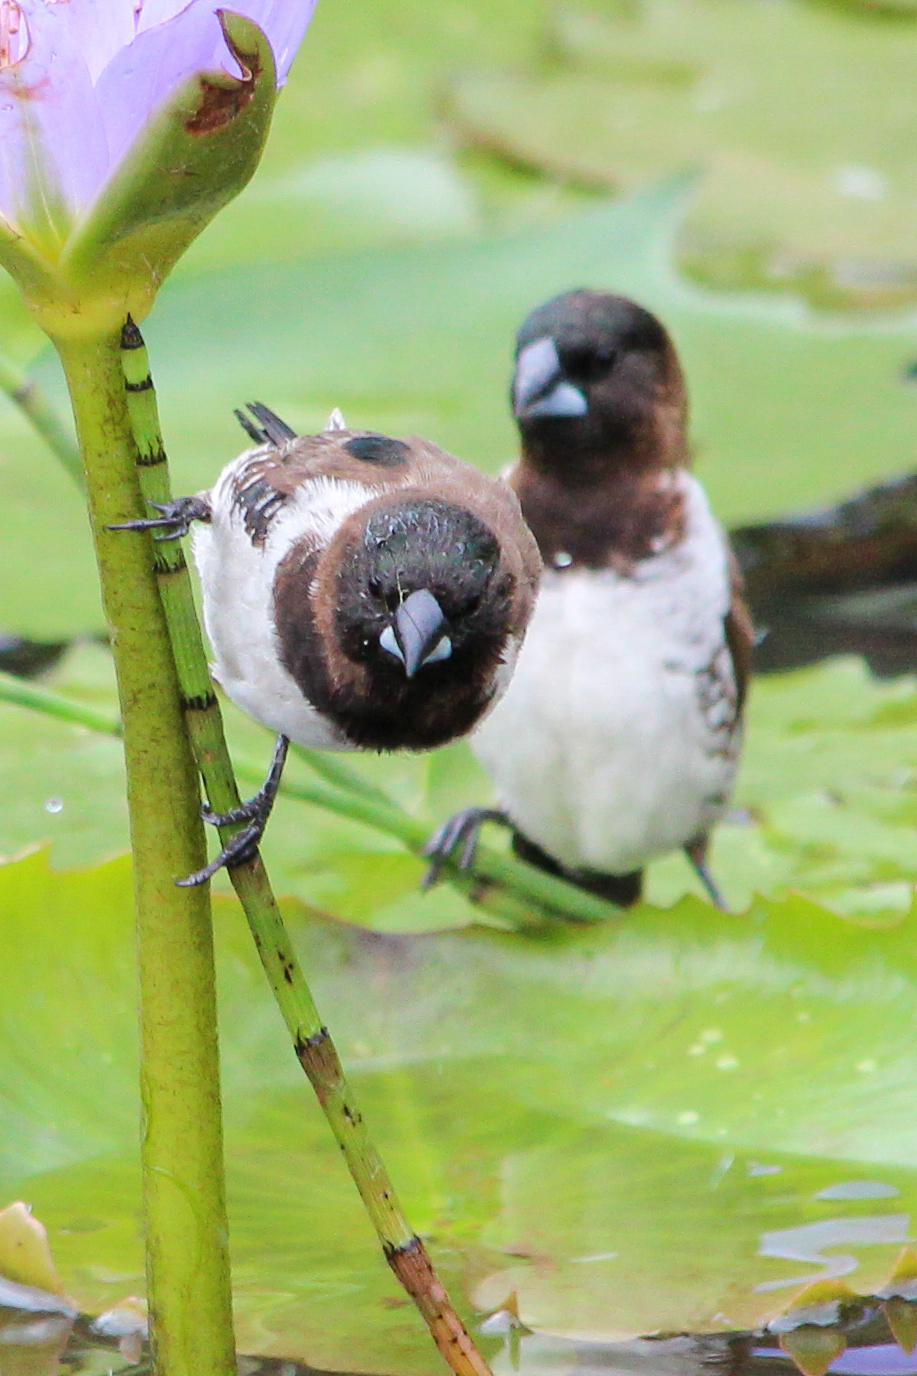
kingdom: Animalia
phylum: Chordata
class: Aves
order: Passeriformes
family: Estrildidae
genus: Lonchura
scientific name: Lonchura cucullata
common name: Bronze mannikin
